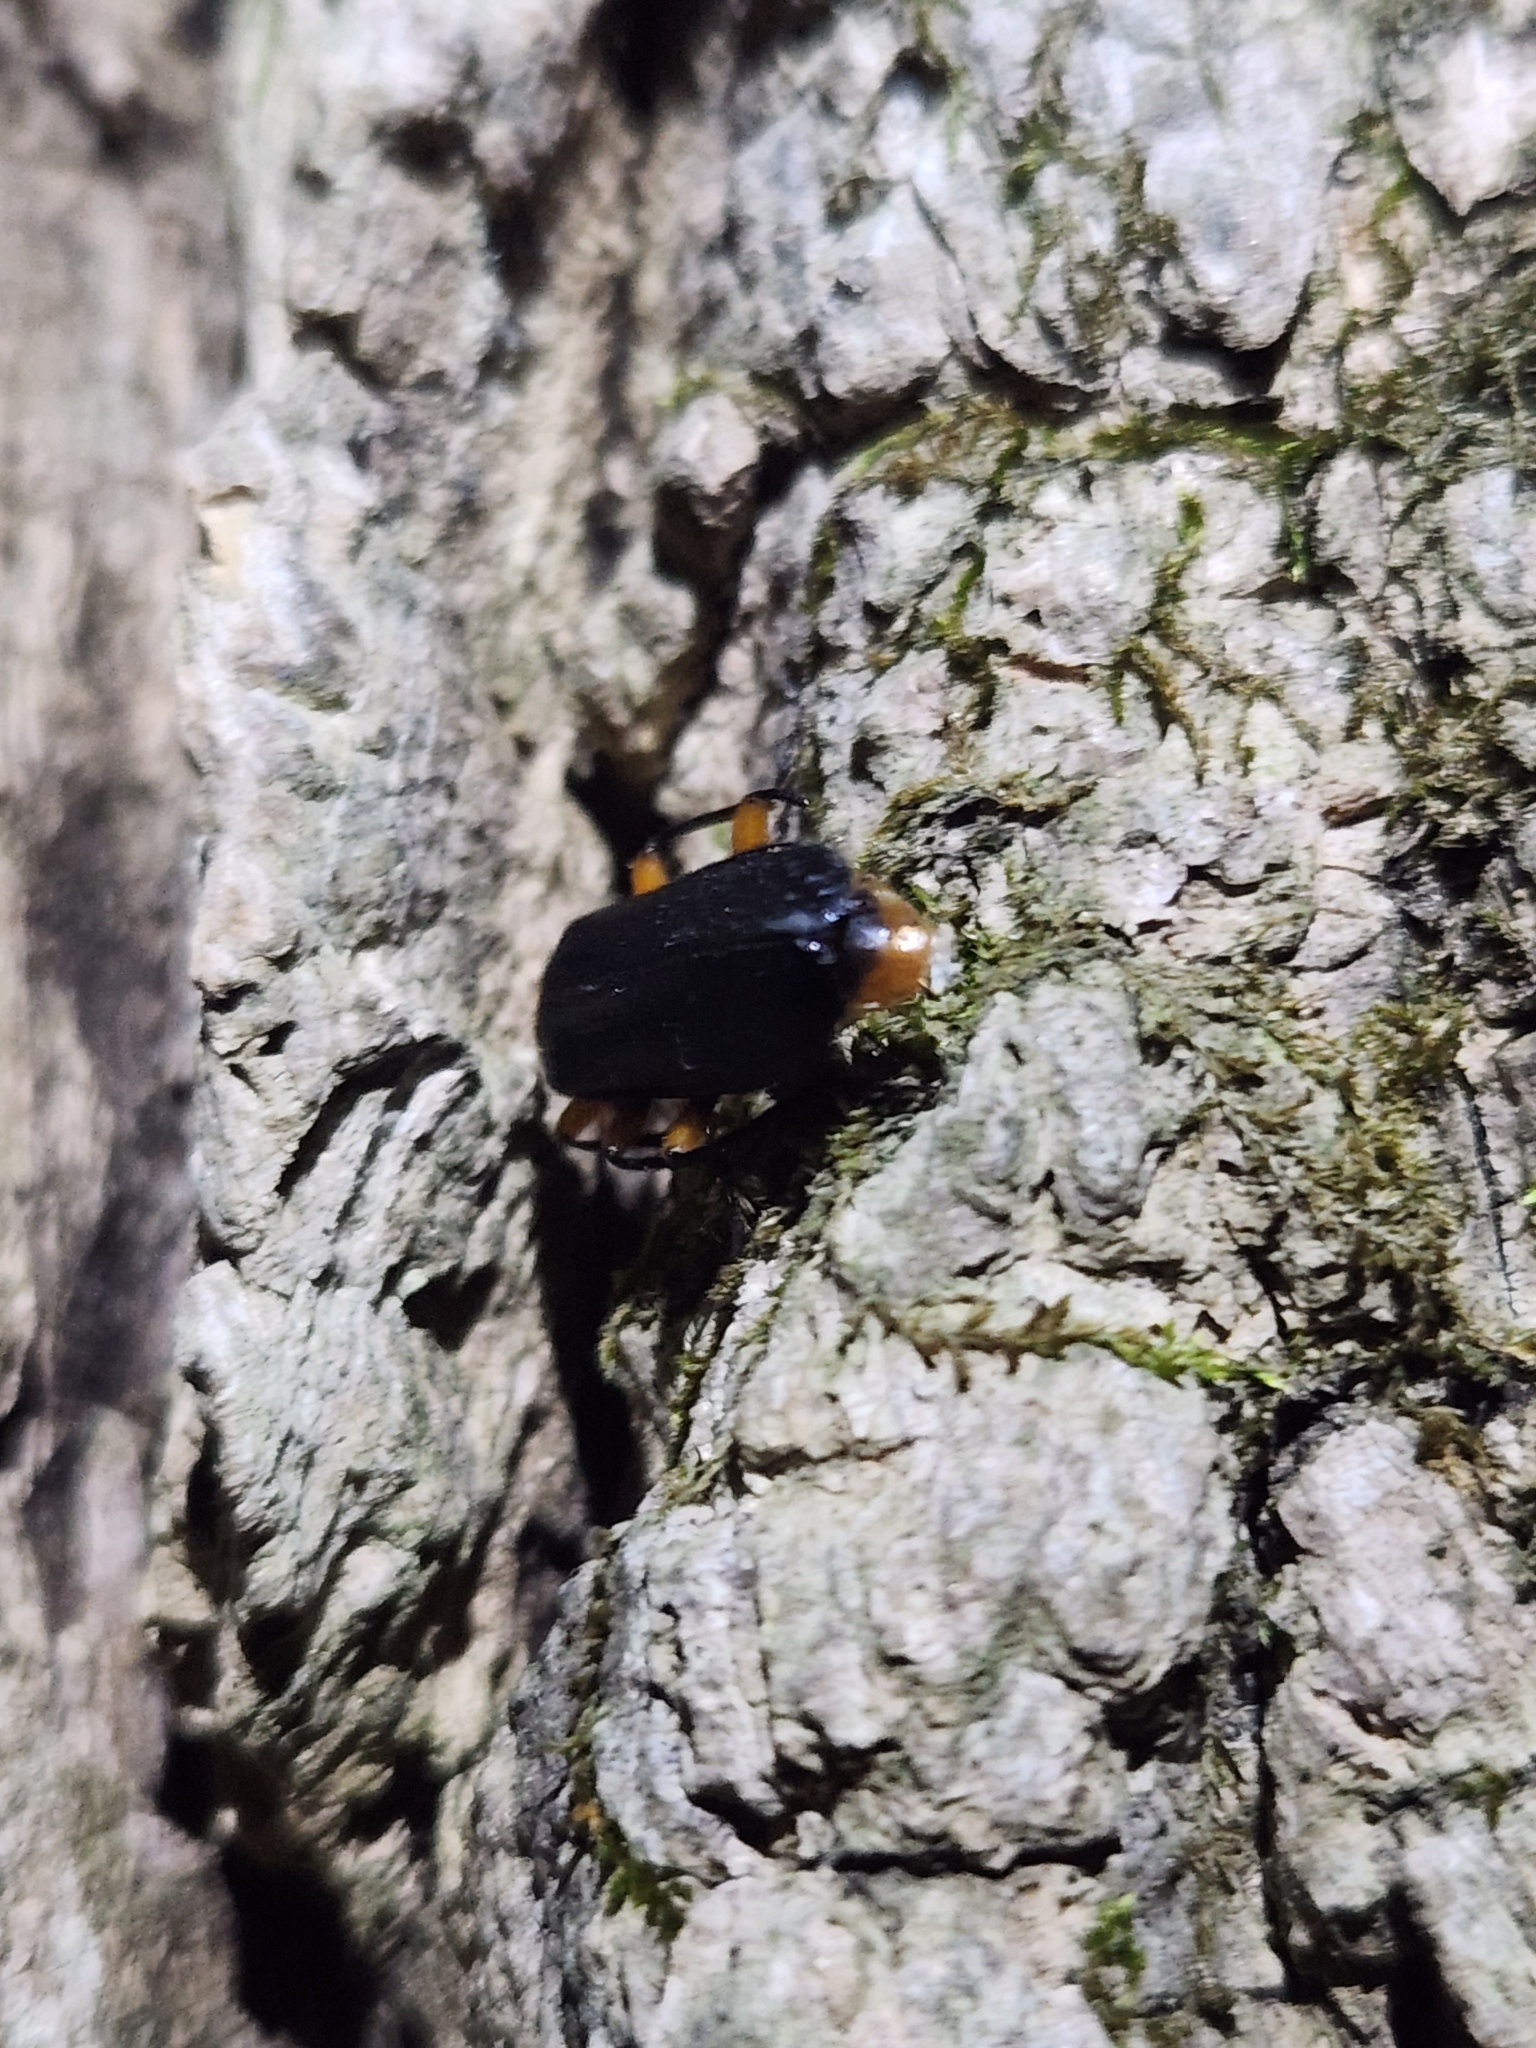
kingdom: Animalia
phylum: Arthropoda
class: Insecta
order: Coleoptera
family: Pyrochroidae
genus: Neopyrochroa
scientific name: Neopyrochroa femoralis
